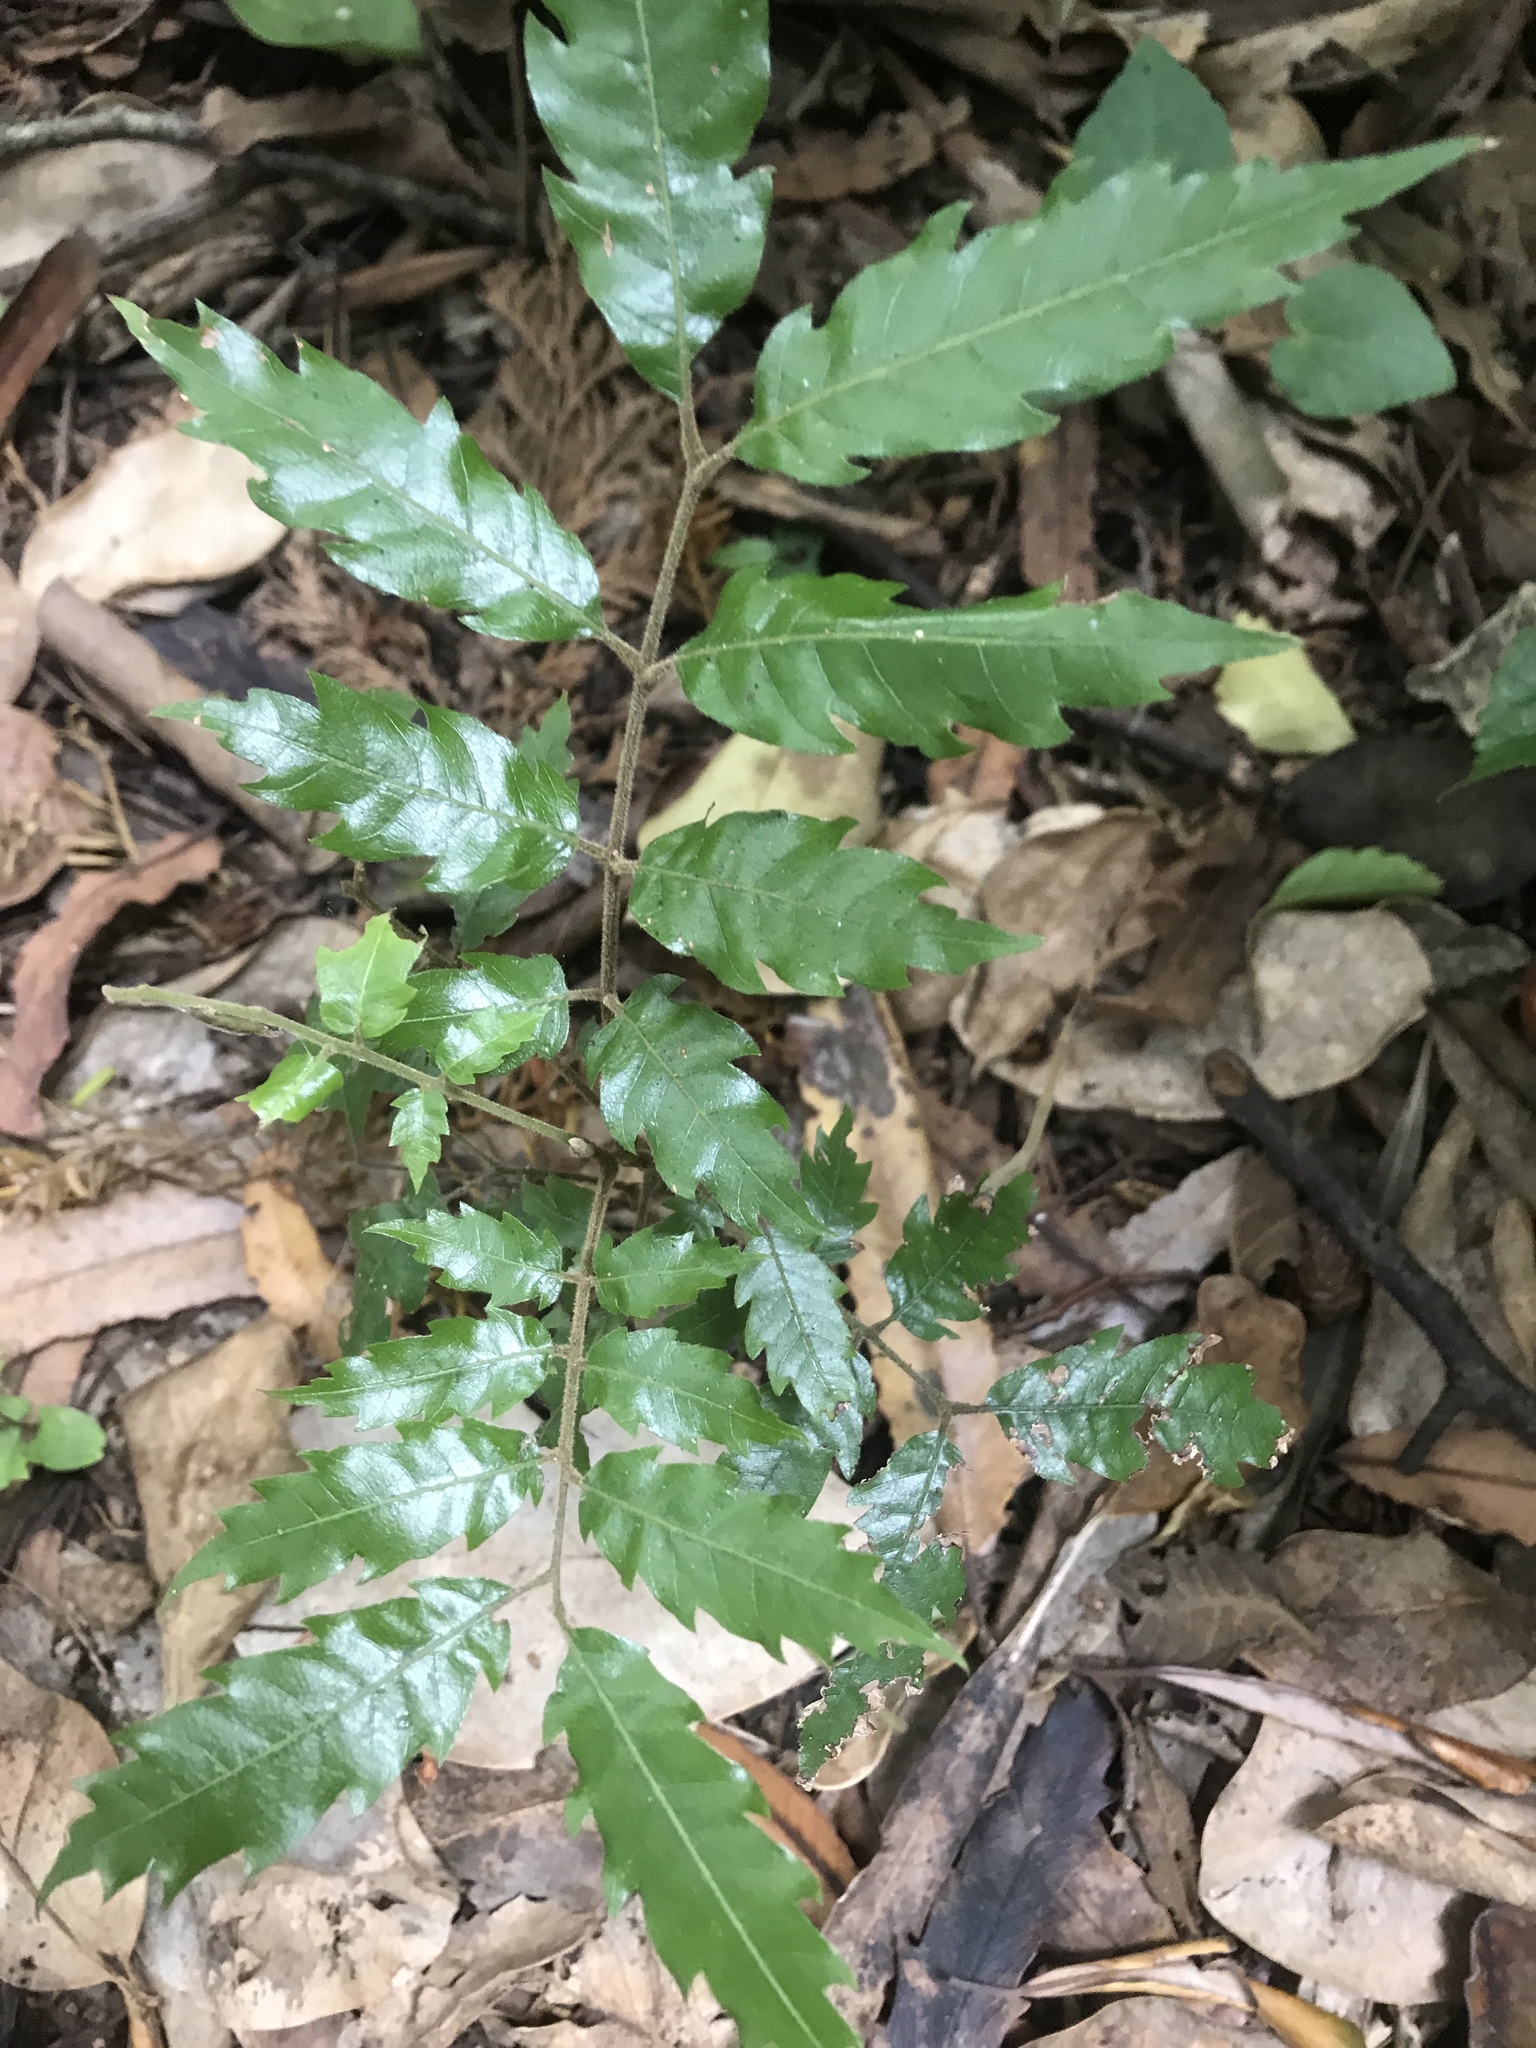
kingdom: Plantae
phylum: Tracheophyta
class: Magnoliopsida
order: Sapindales
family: Sapindaceae
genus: Alectryon
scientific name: Alectryon excelsus
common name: Three kings titoki
